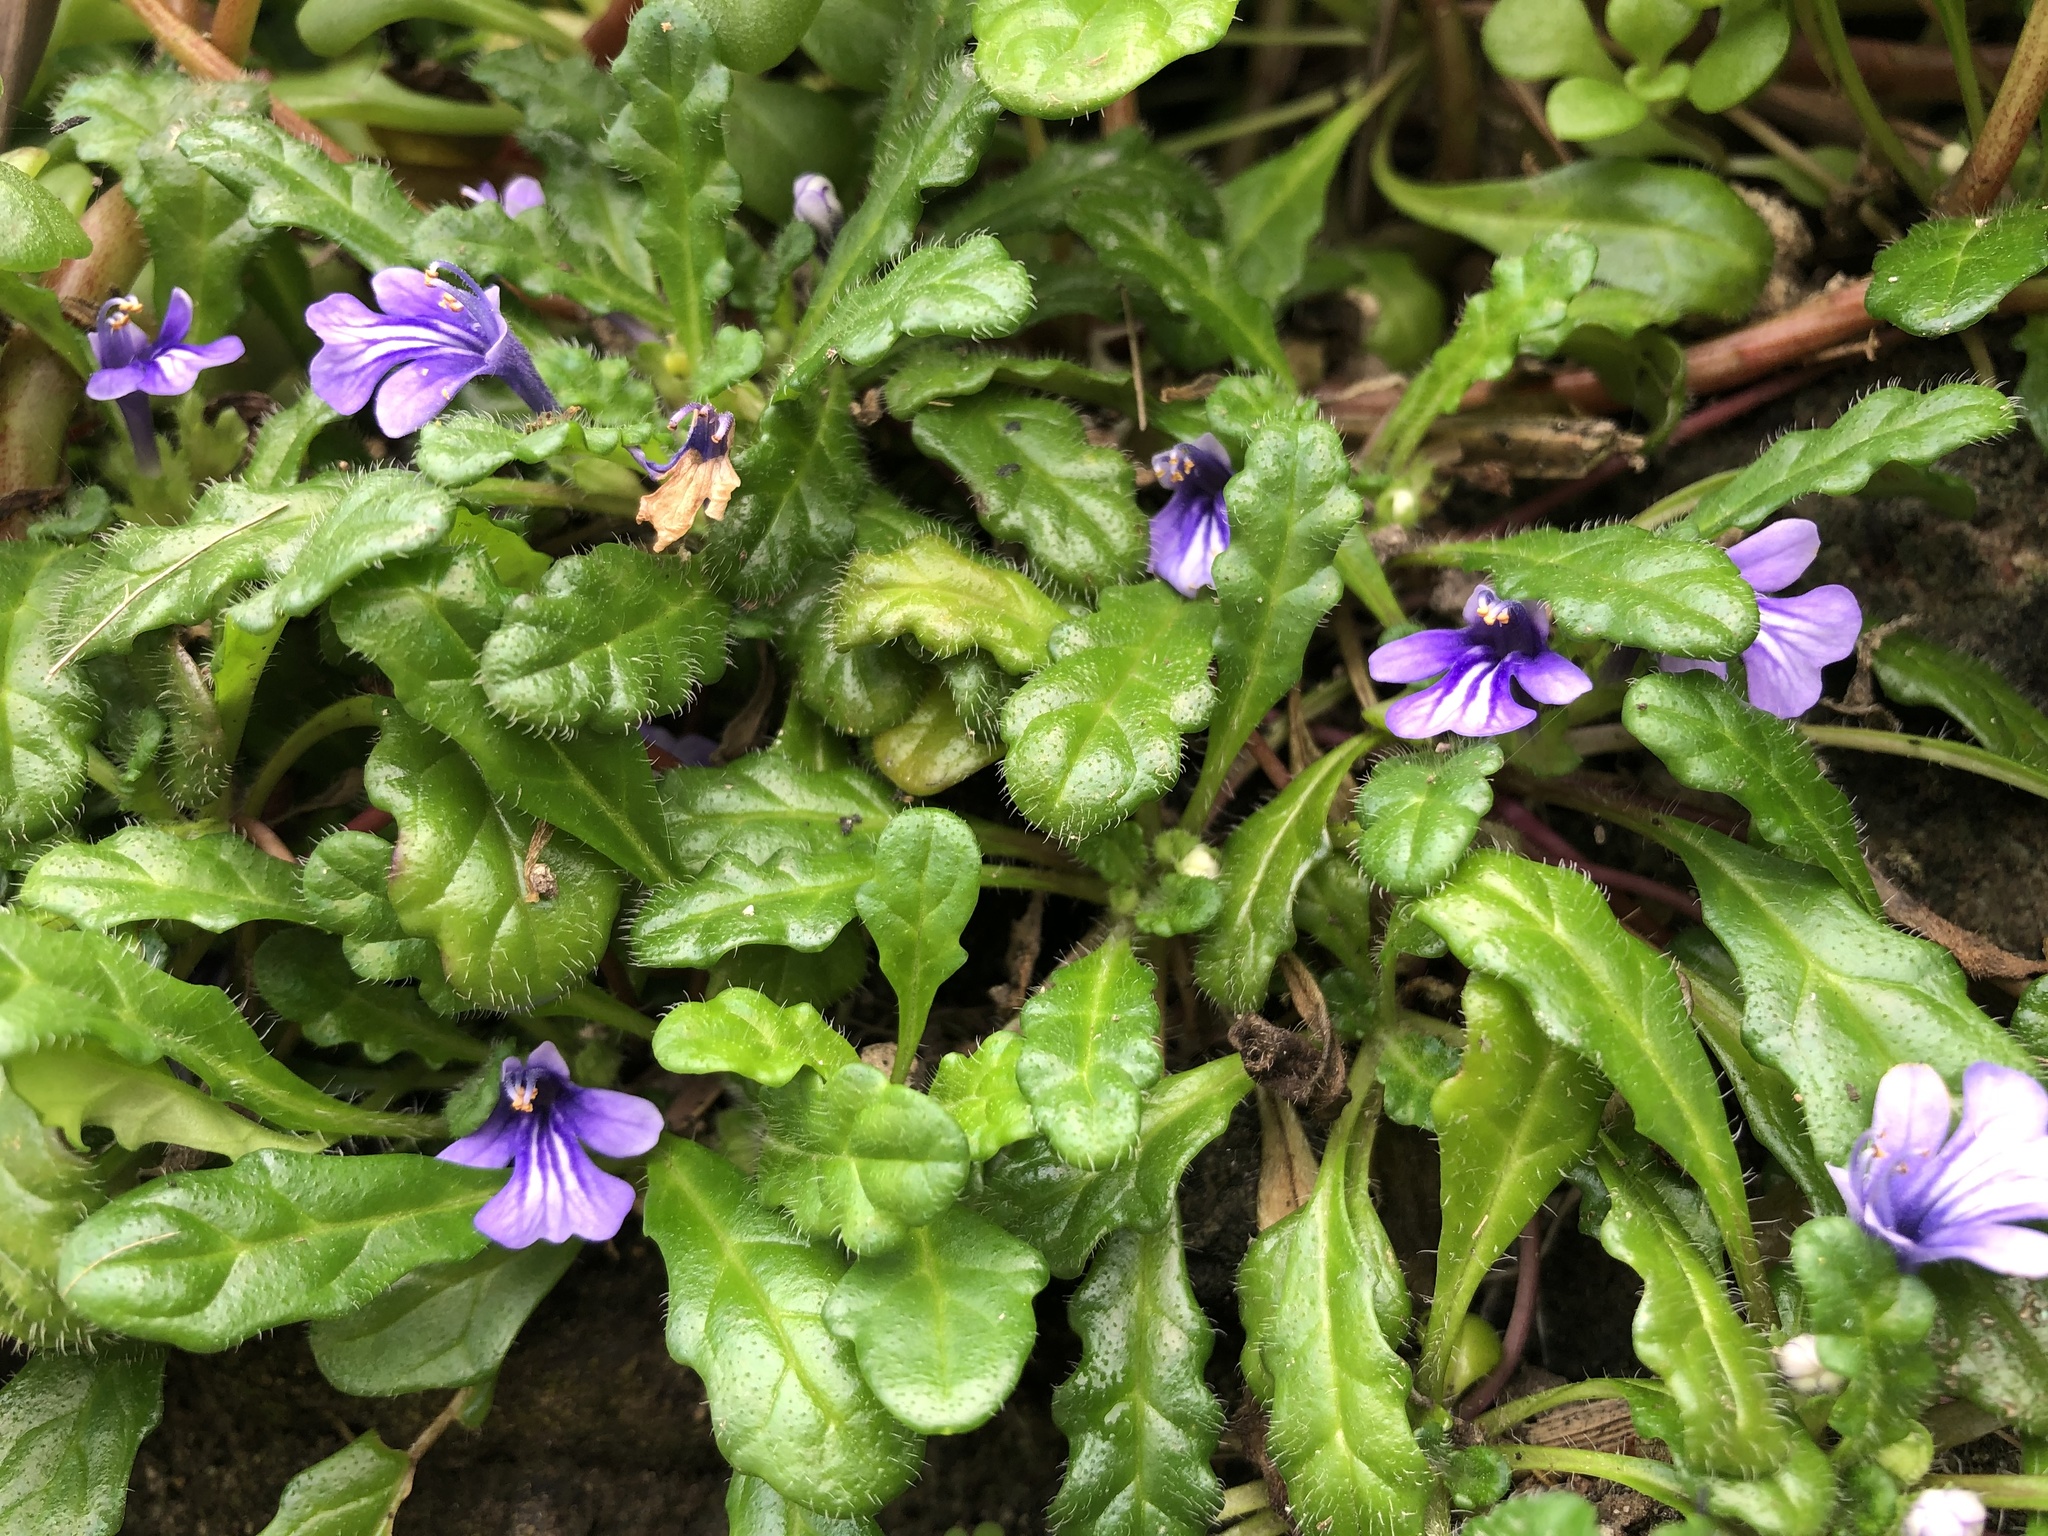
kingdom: Plantae
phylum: Tracheophyta
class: Magnoliopsida
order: Lamiales
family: Lamiaceae
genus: Ajuga
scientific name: Ajuga pygmaea
